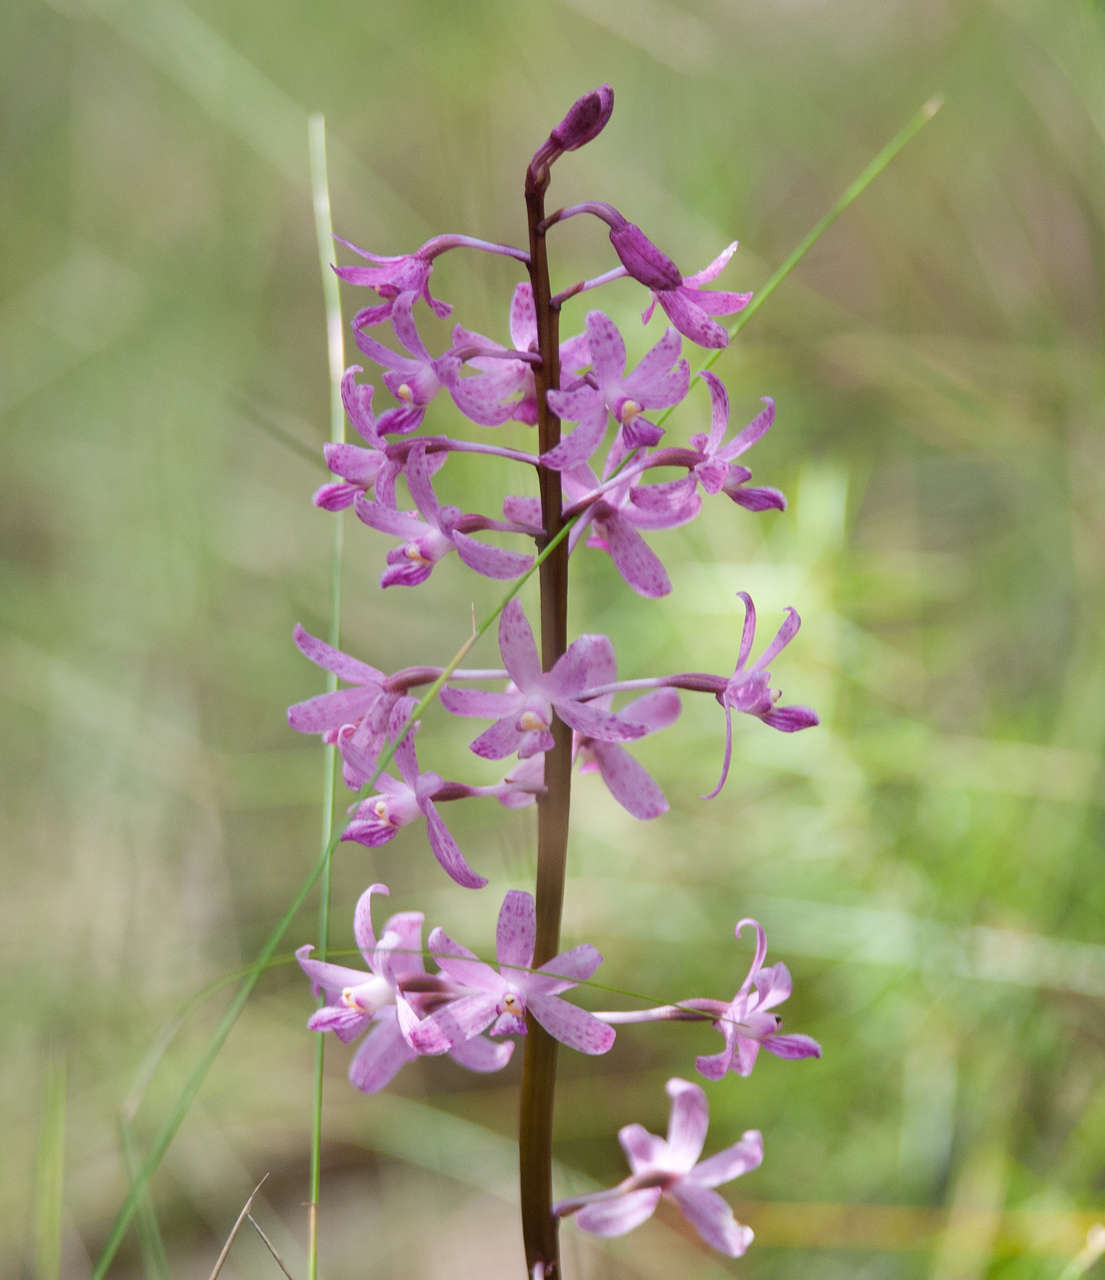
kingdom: Plantae
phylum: Tracheophyta
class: Liliopsida
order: Asparagales
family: Orchidaceae
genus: Dipodium
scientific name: Dipodium roseum
